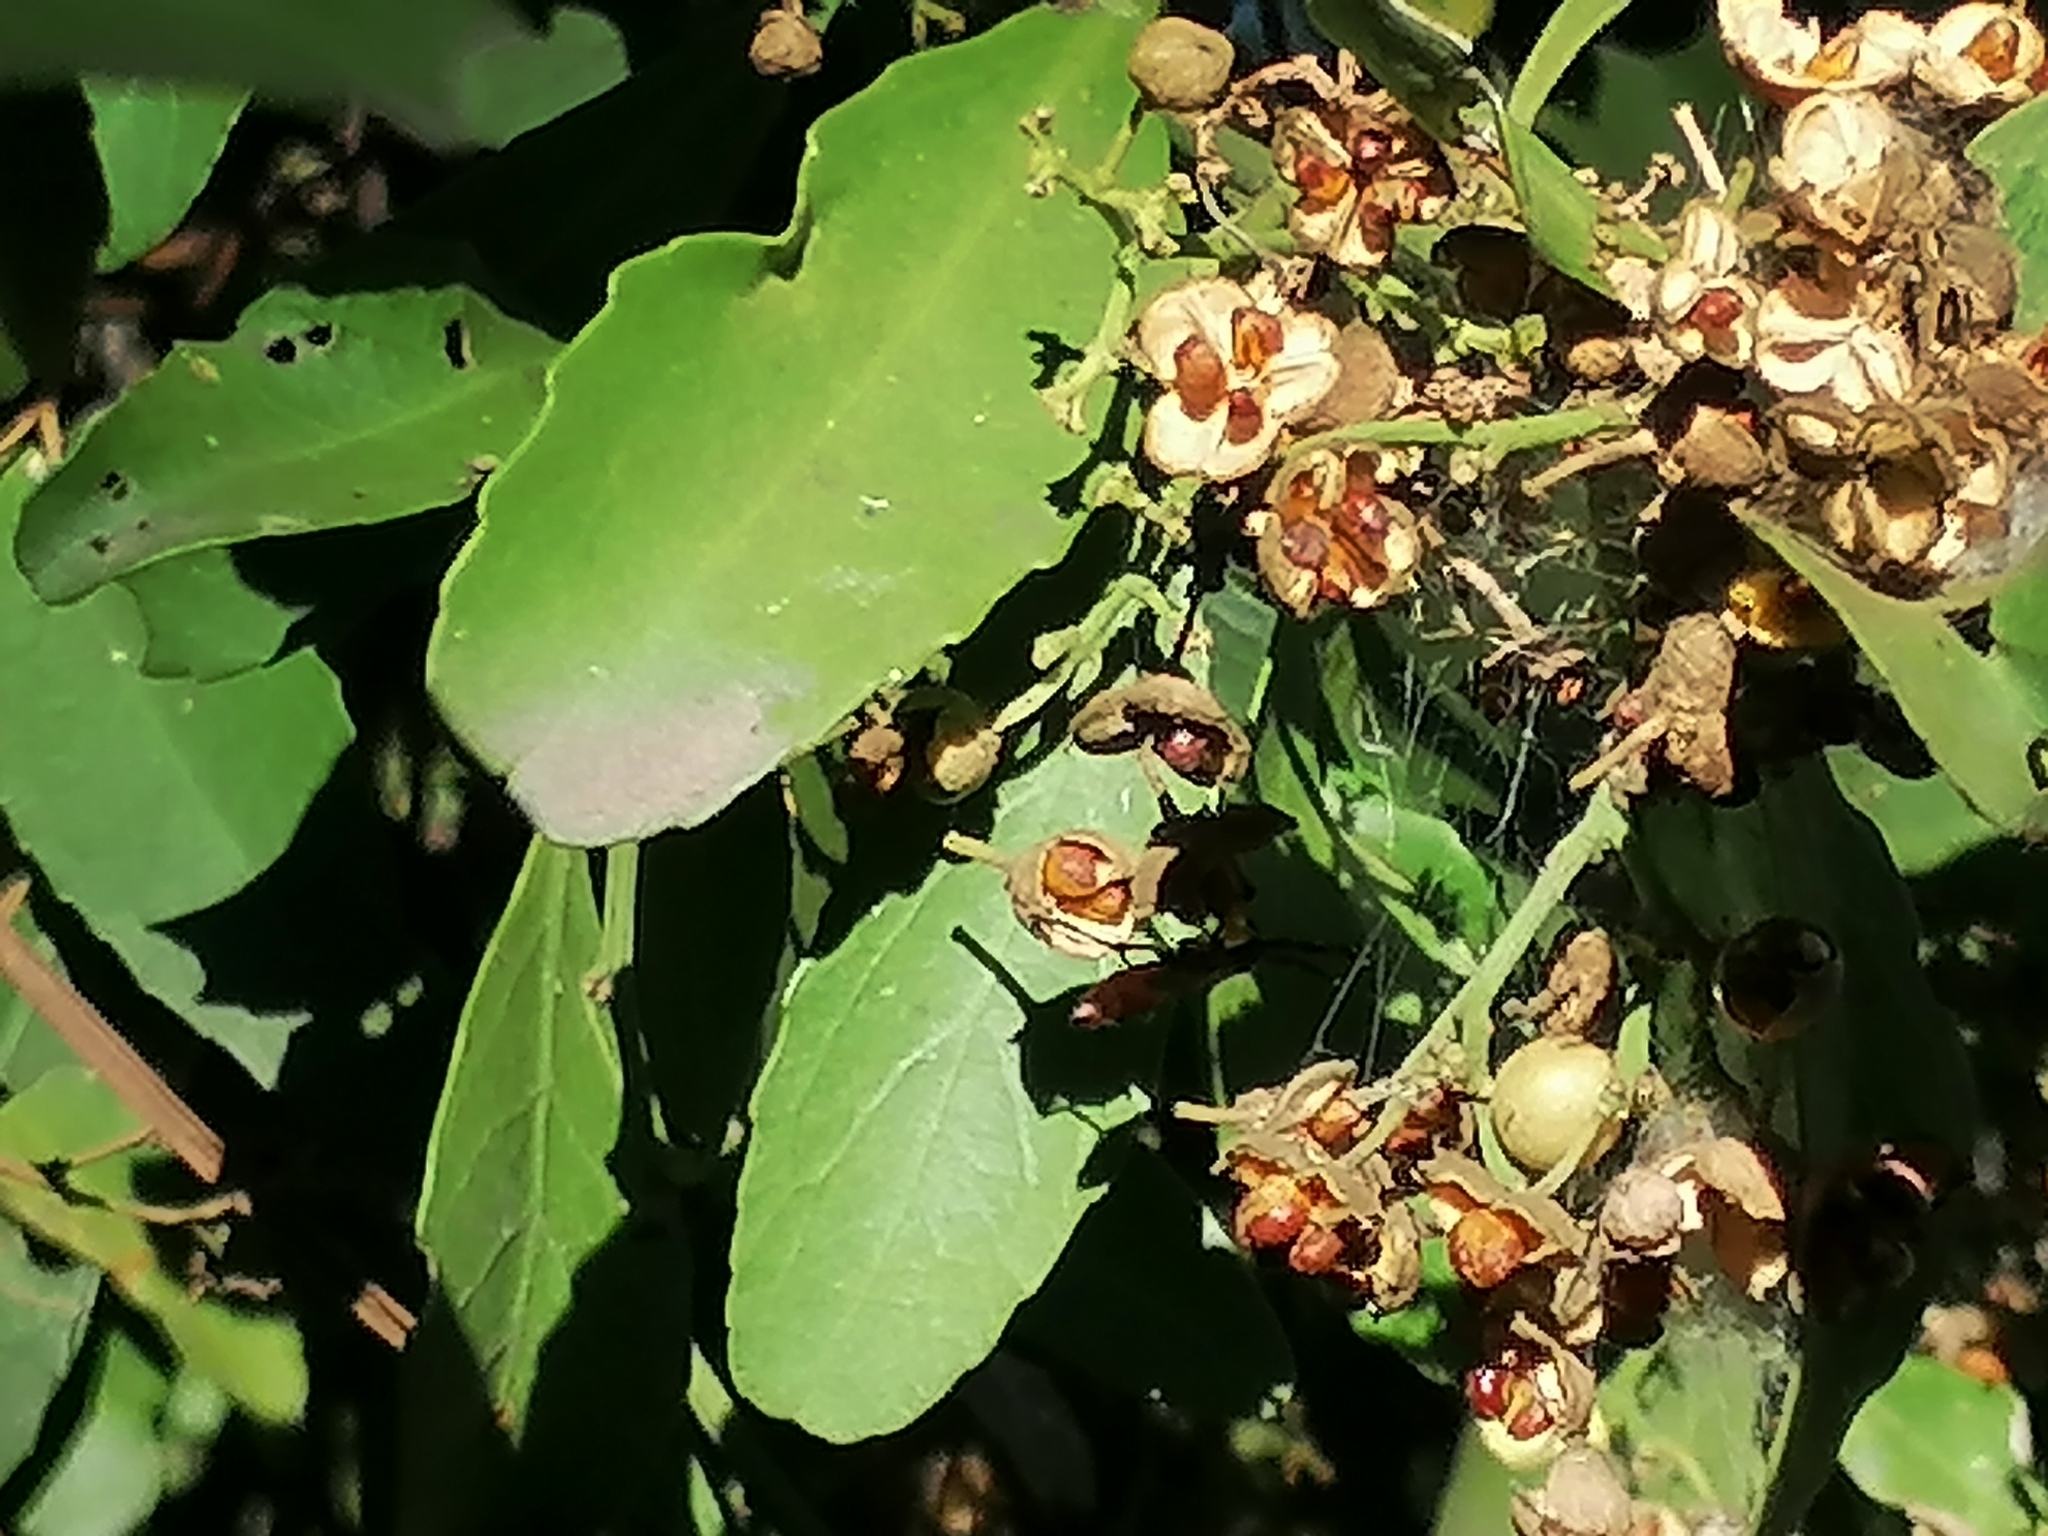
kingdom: Plantae
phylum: Tracheophyta
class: Magnoliopsida
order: Celastrales
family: Celastraceae
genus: Gymnosporia
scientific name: Gymnosporia buxifolia
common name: Common spike-thorn
